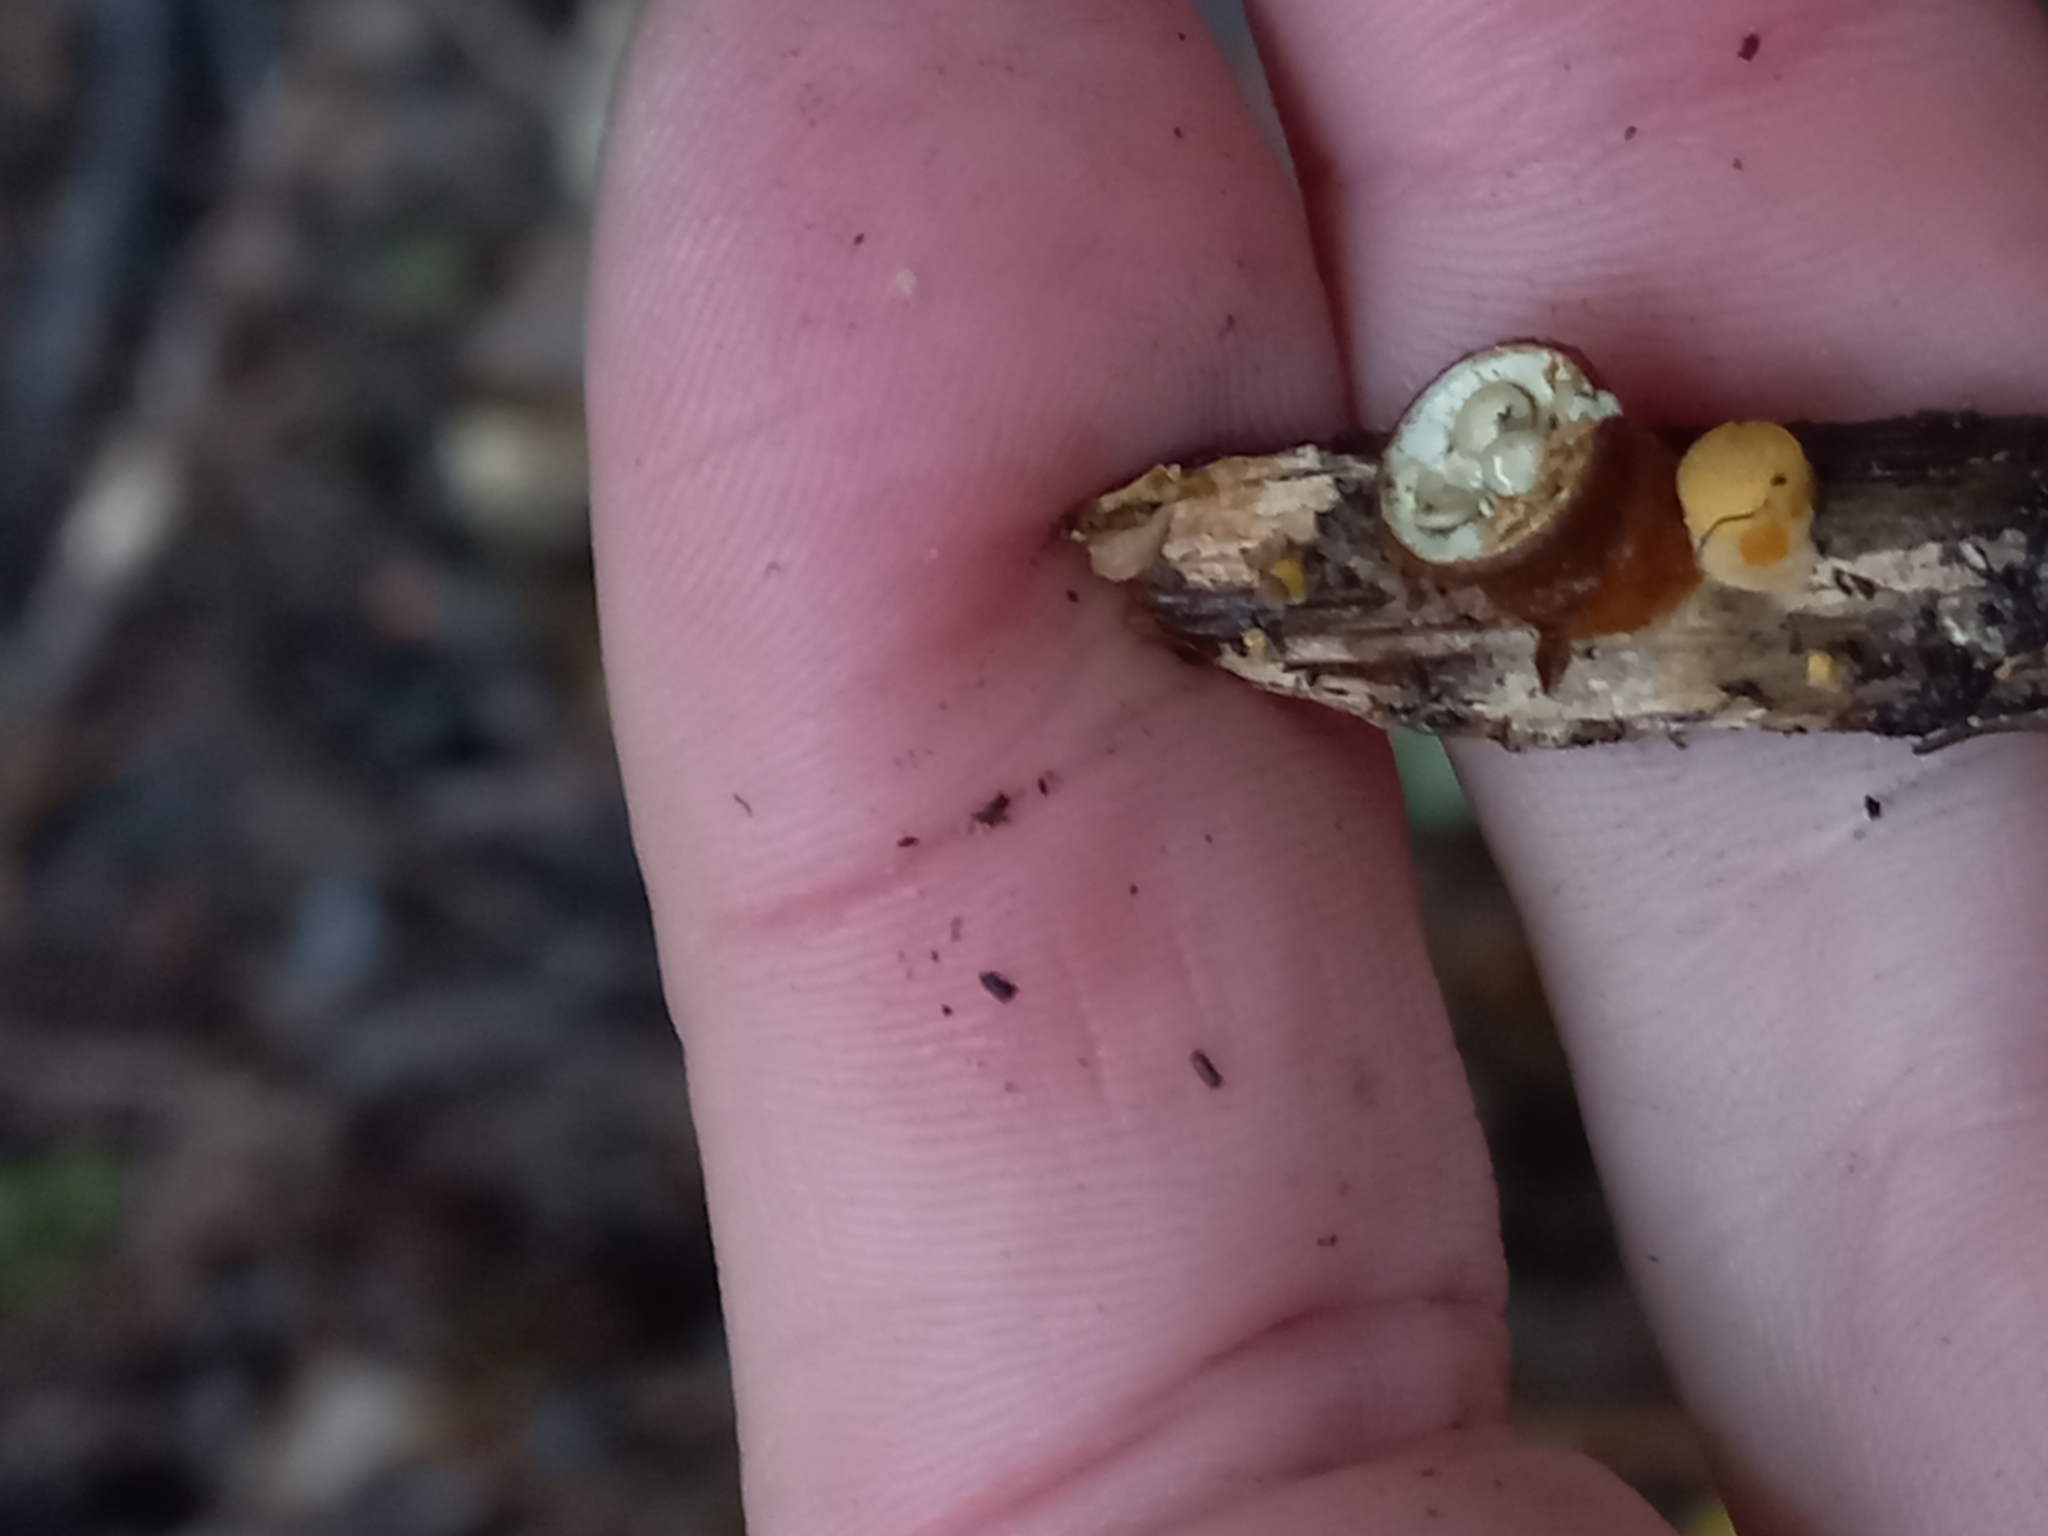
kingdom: Fungi
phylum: Basidiomycota
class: Agaricomycetes
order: Agaricales
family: Nidulariaceae
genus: Crucibulum
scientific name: Crucibulum simile
